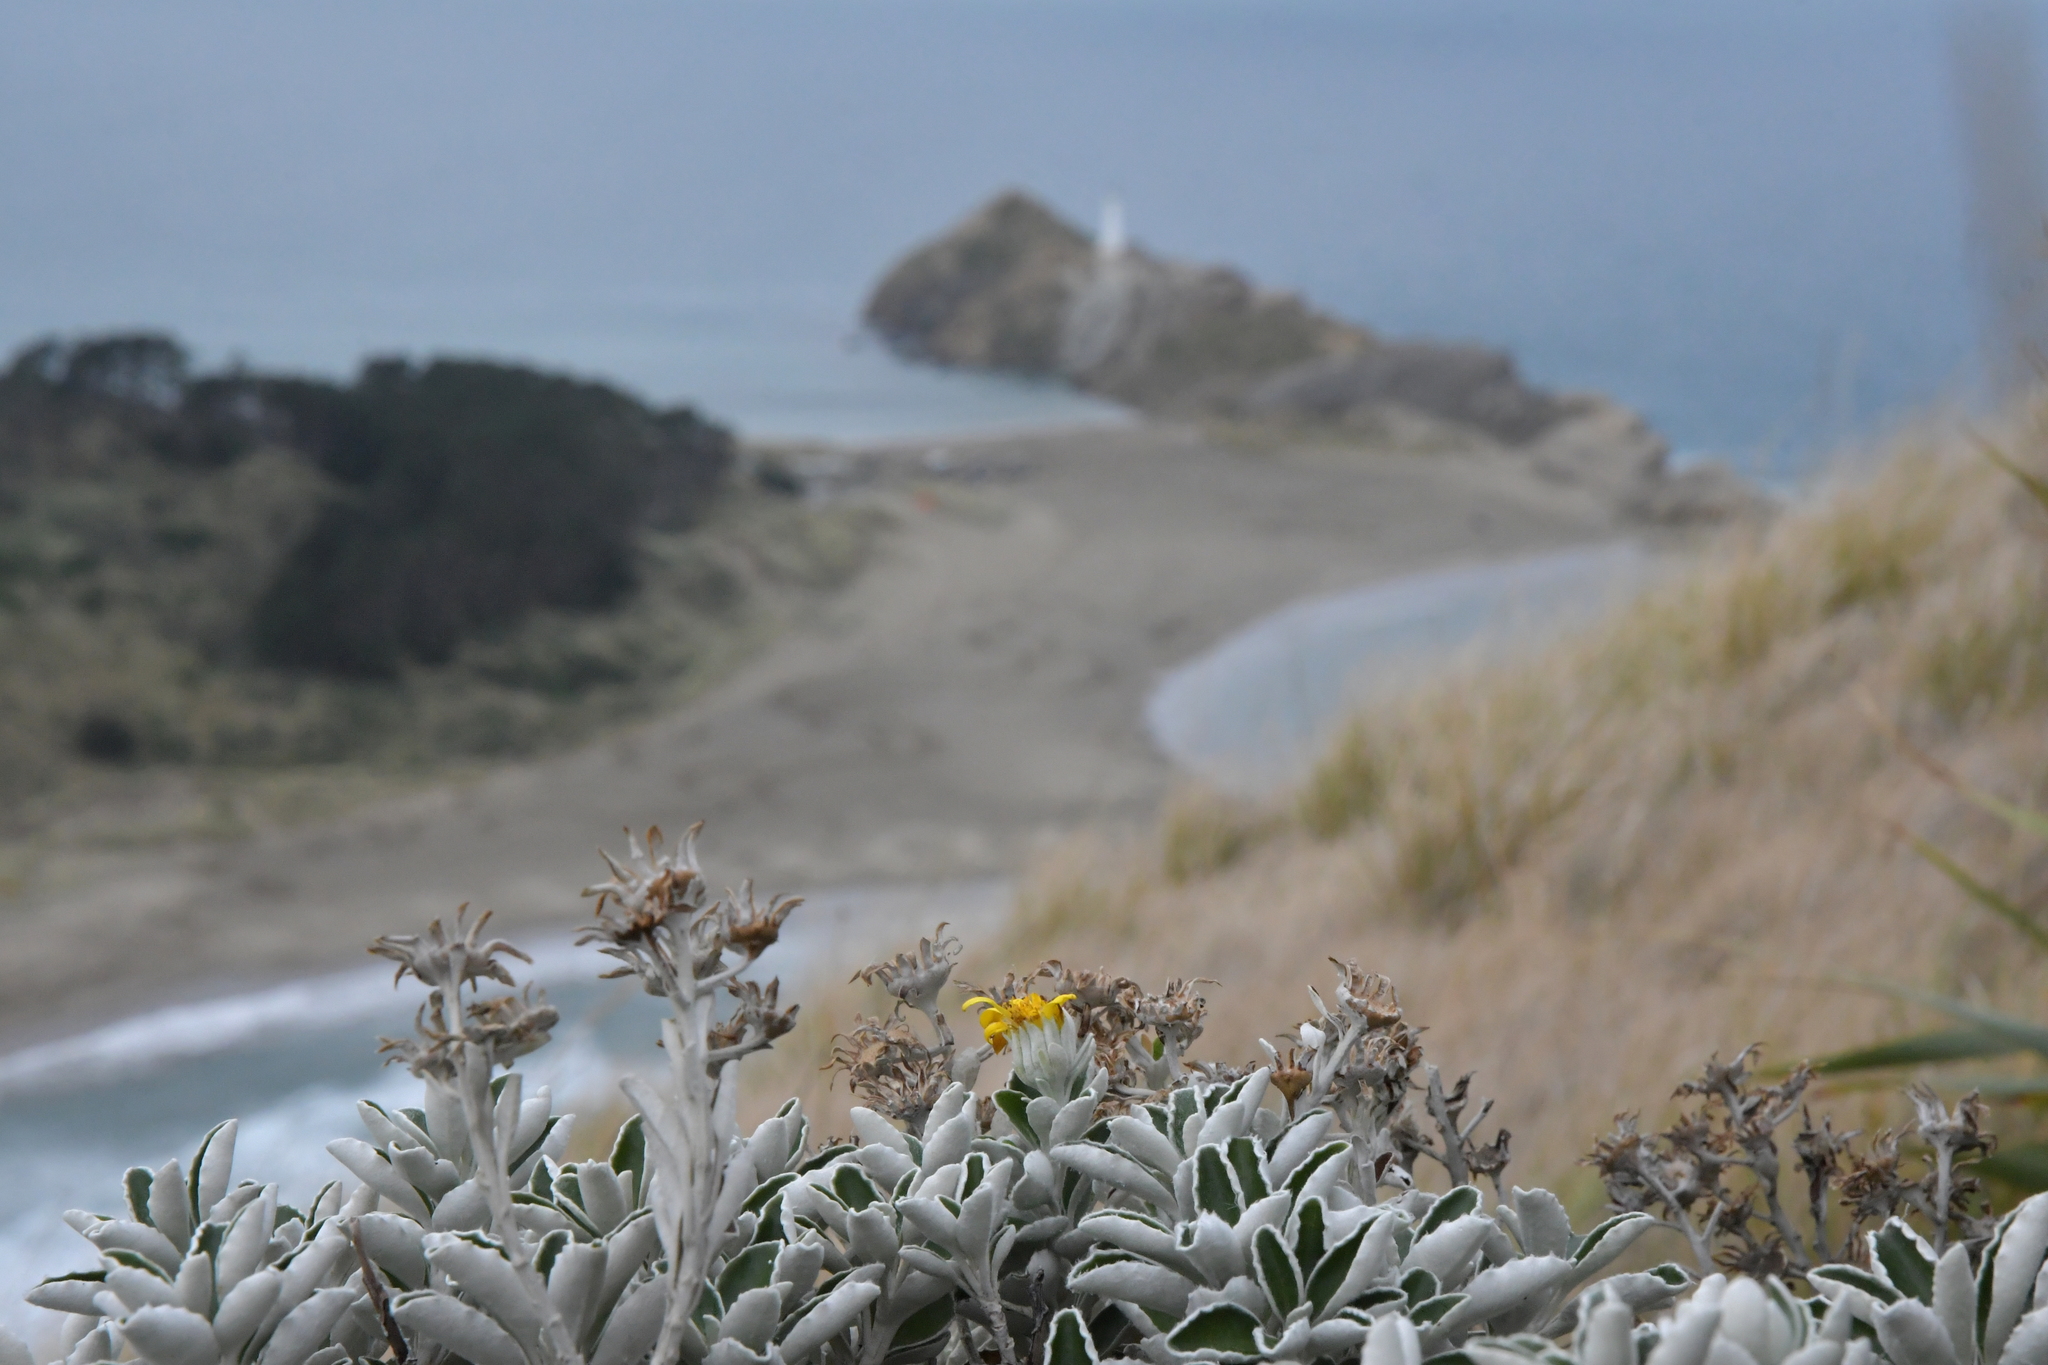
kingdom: Plantae
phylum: Tracheophyta
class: Magnoliopsida
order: Asterales
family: Asteraceae
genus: Brachyglottis
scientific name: Brachyglottis compacta
